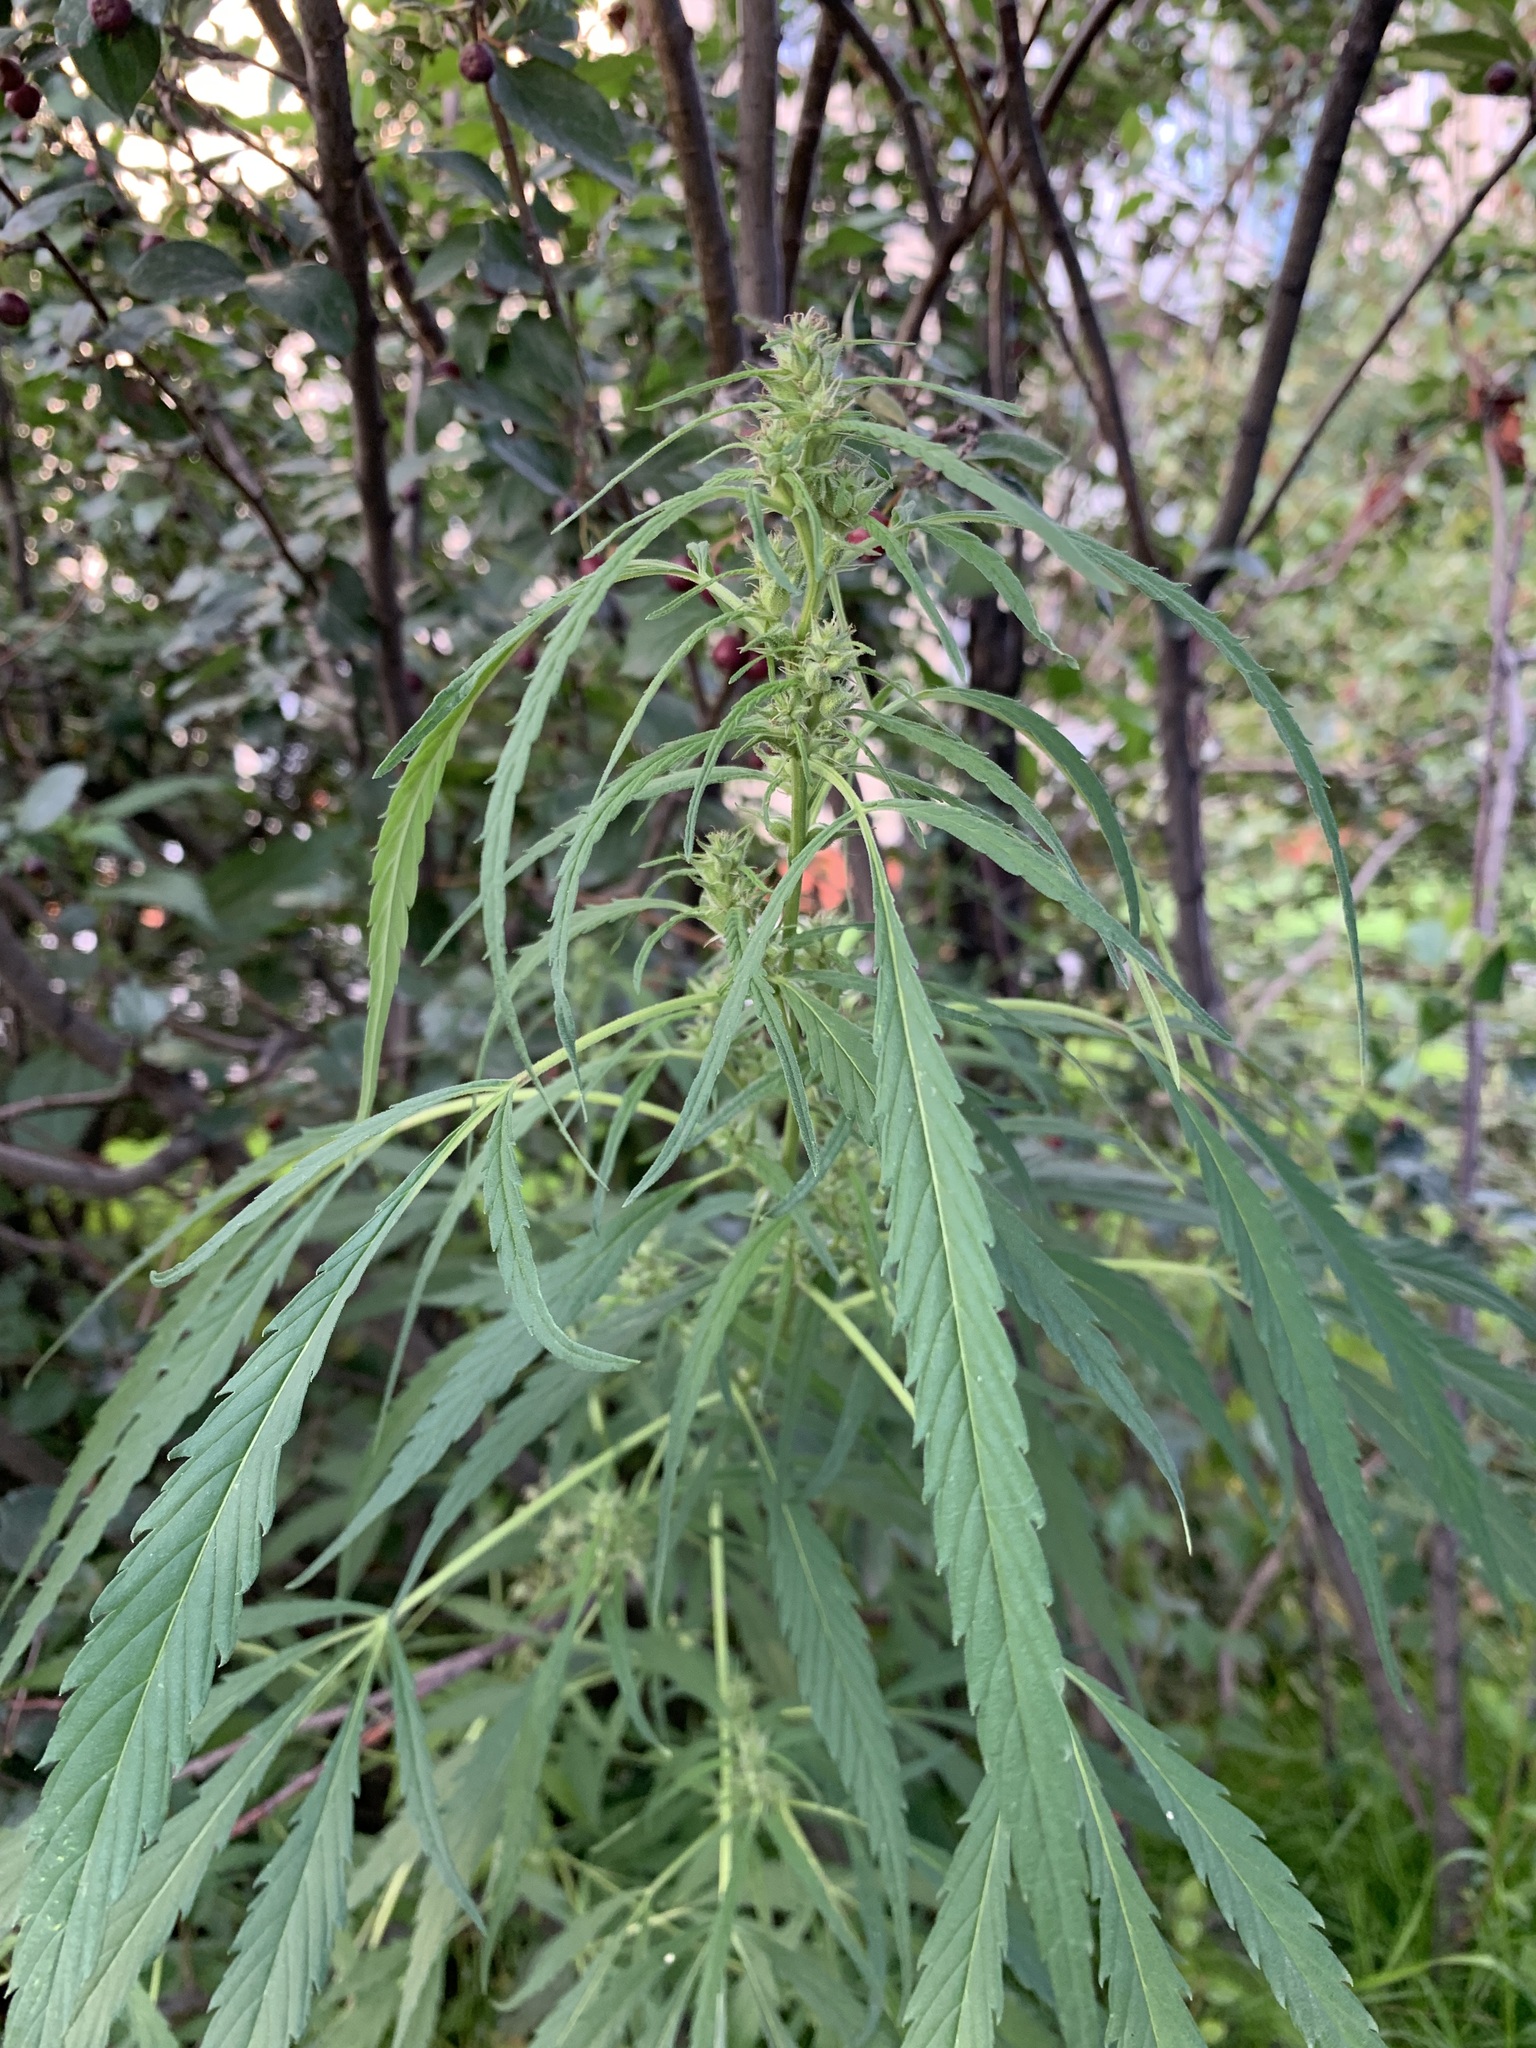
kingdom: Plantae
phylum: Tracheophyta
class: Magnoliopsida
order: Rosales
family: Cannabaceae
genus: Cannabis
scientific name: Cannabis sativa
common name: Hemp
